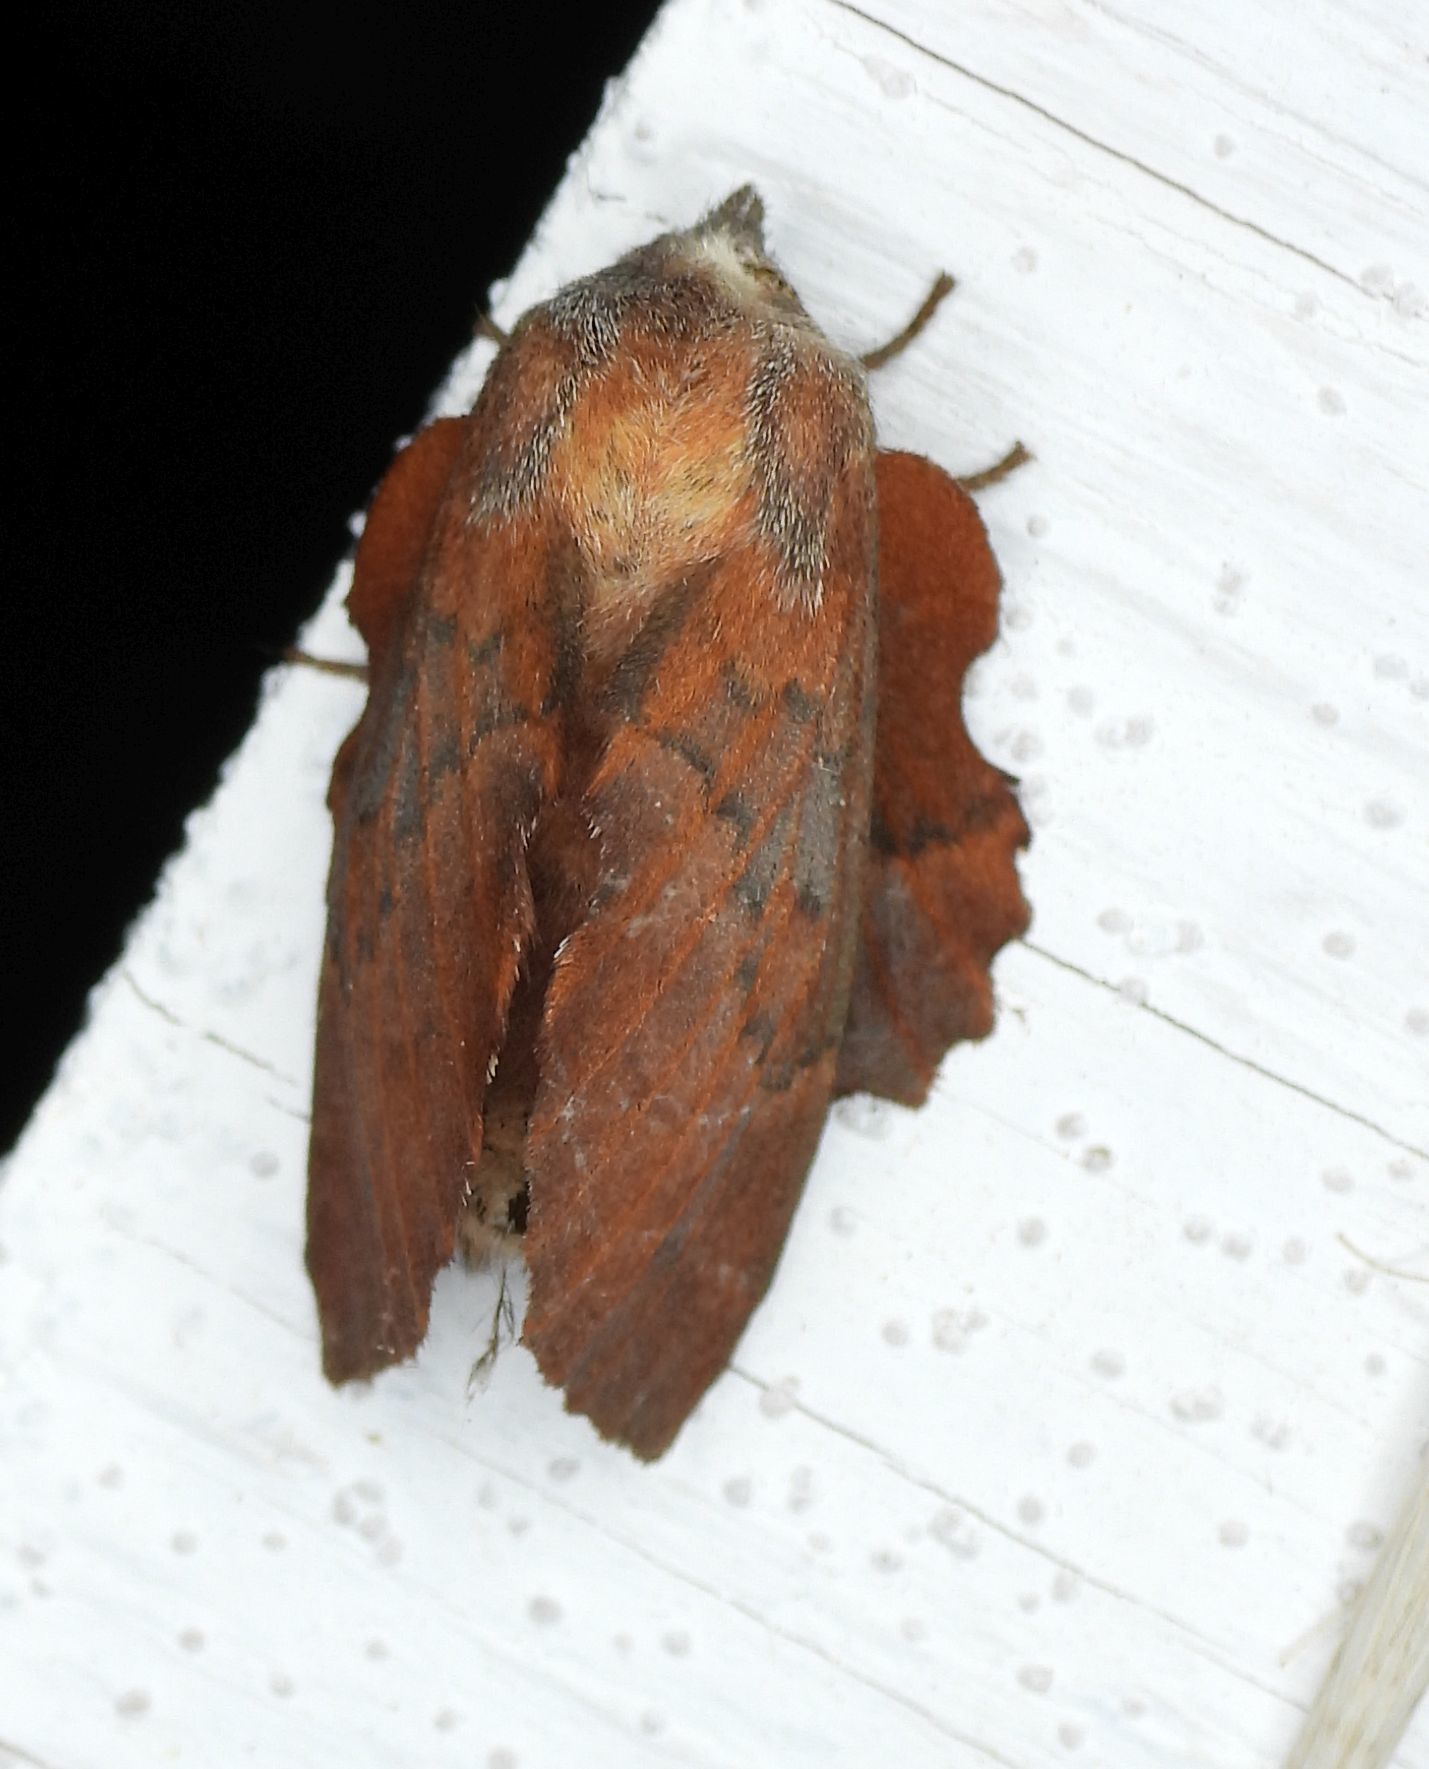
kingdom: Animalia
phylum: Arthropoda
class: Insecta
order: Lepidoptera
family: Lasiocampidae
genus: Phyllodesma
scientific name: Phyllodesma americana
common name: American lappet moth
